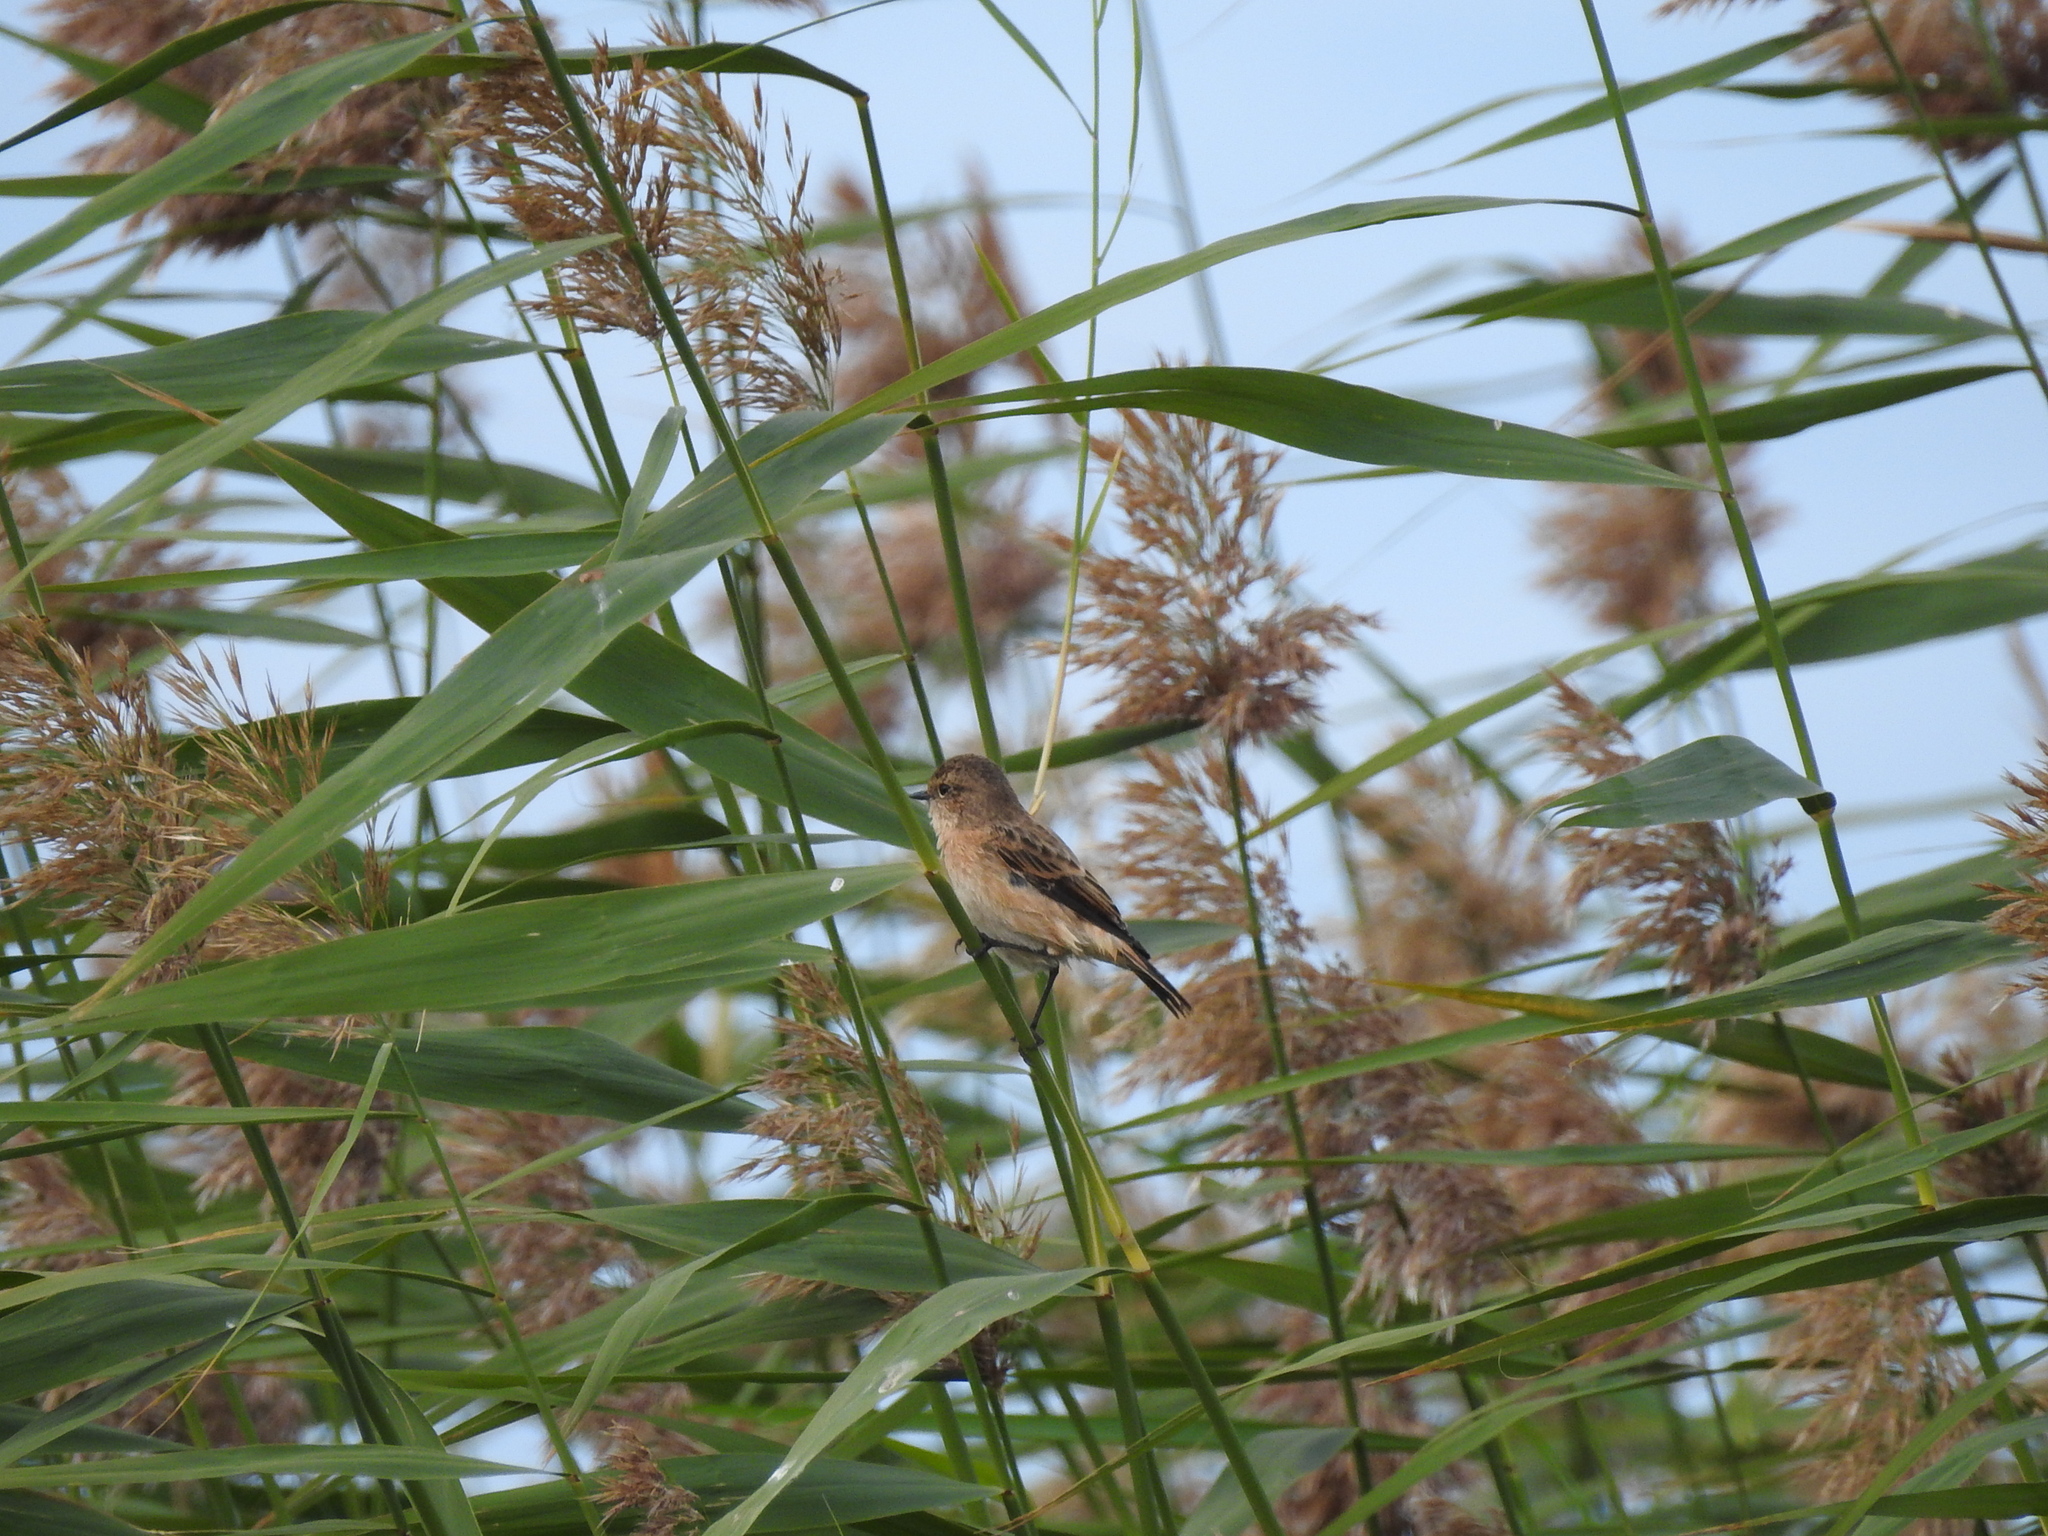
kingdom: Animalia
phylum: Chordata
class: Aves
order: Passeriformes
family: Muscicapidae
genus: Saxicola
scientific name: Saxicola maurus
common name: Siberian stonechat
